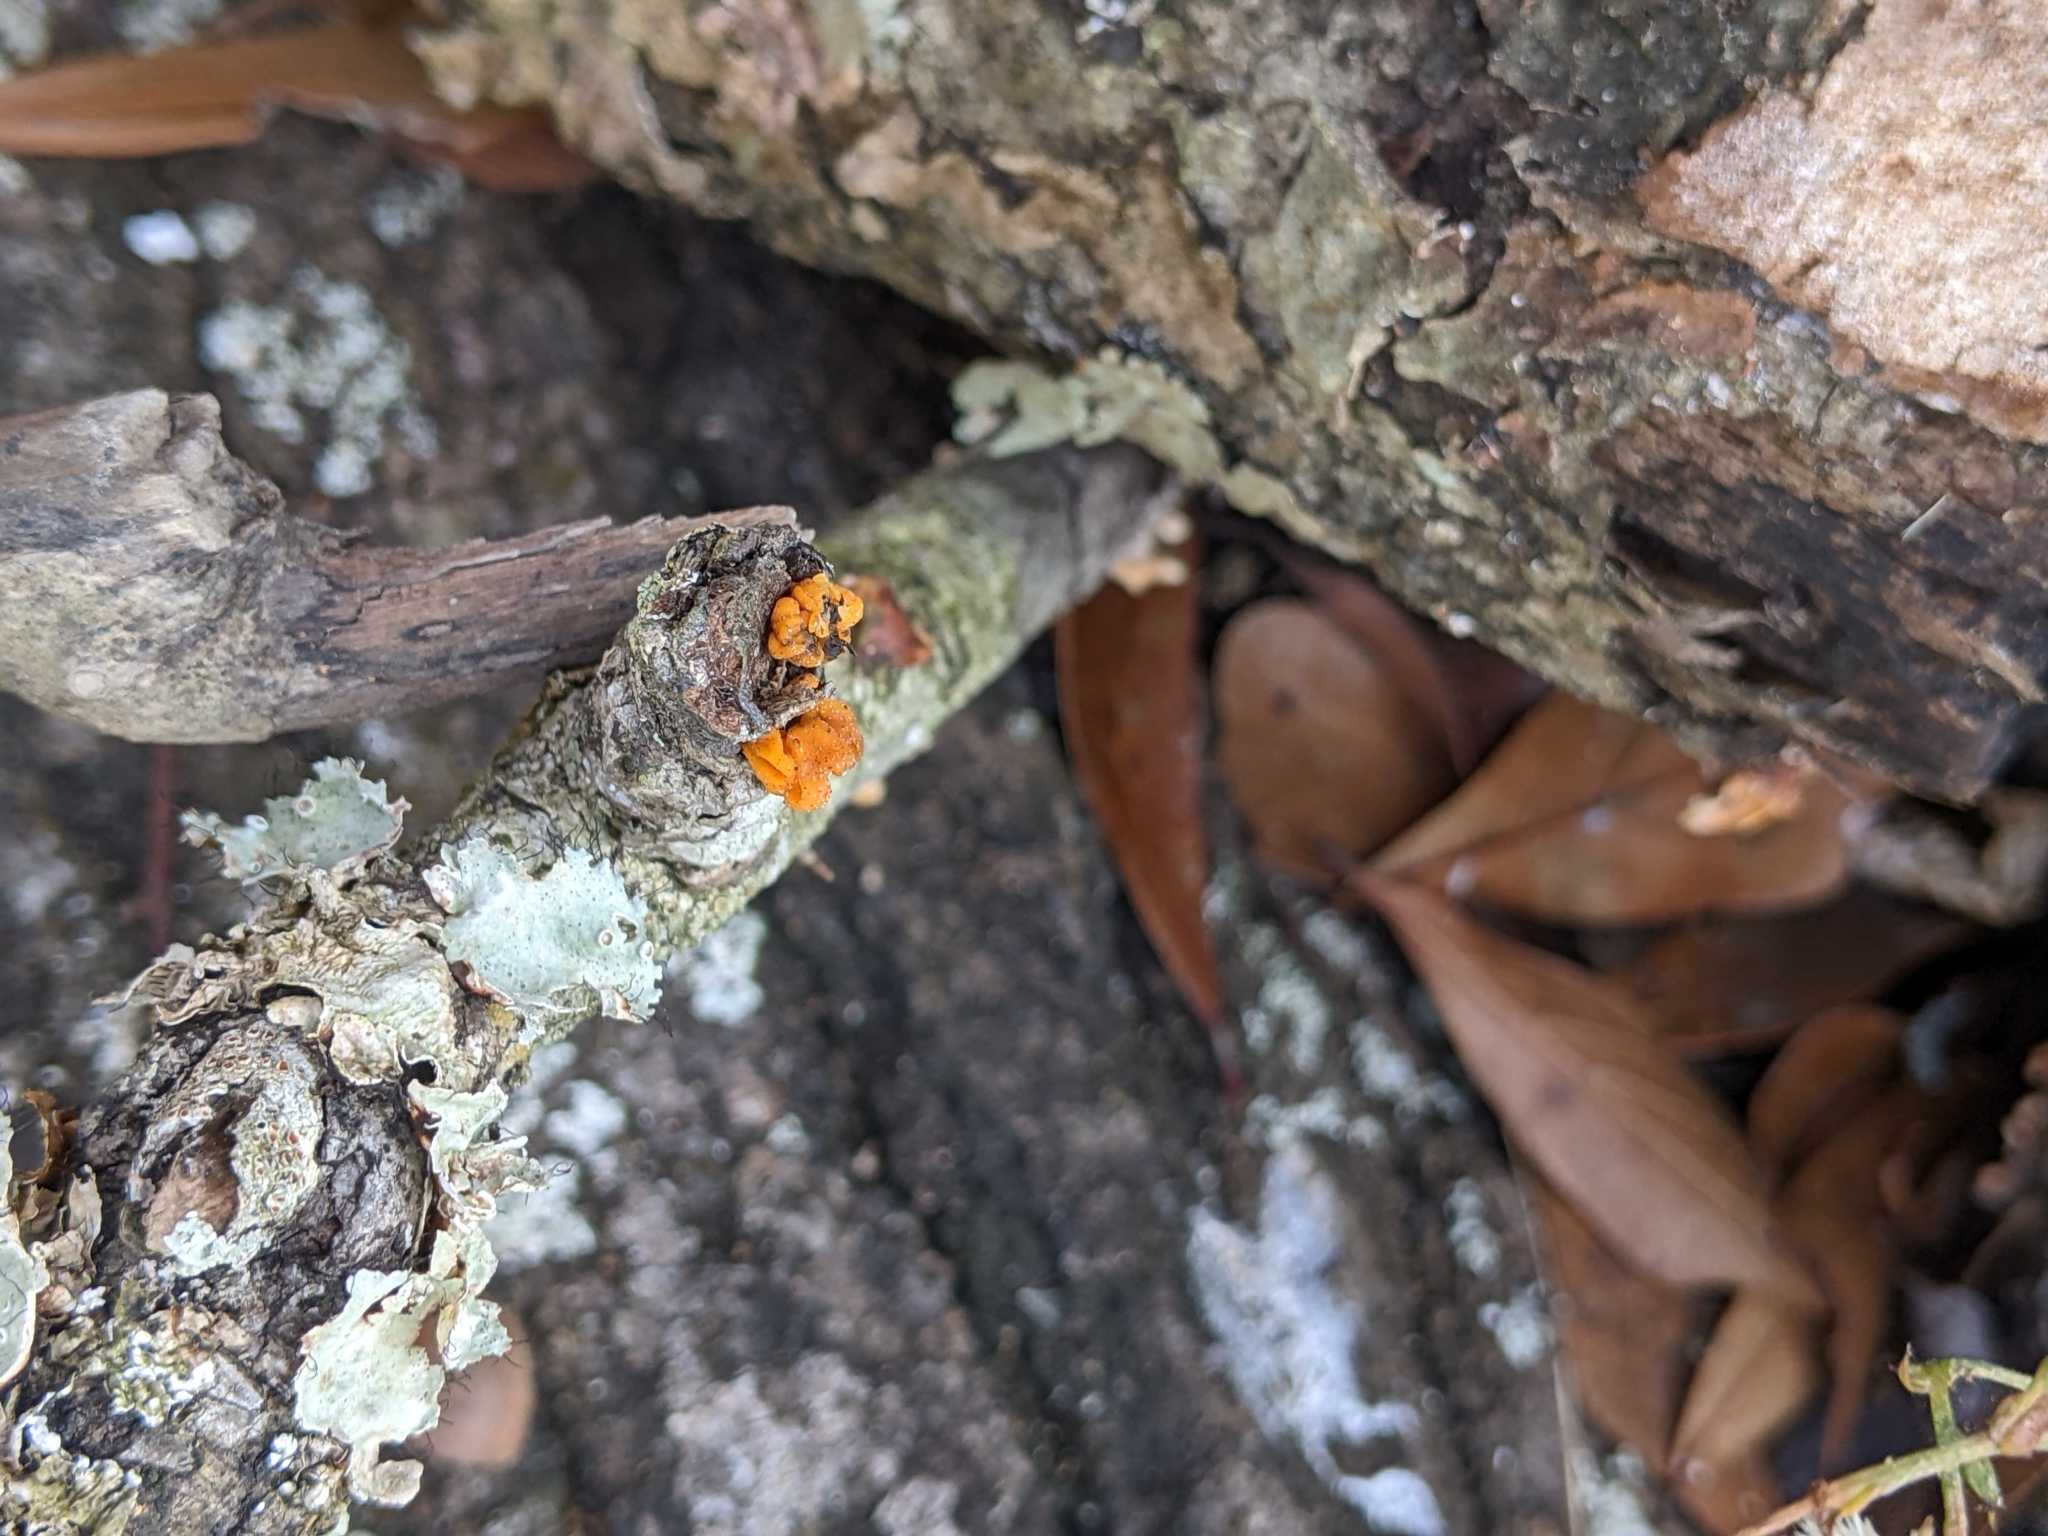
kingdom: Fungi
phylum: Basidiomycota
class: Tremellomycetes
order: Tremellales
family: Naemateliaceae
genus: Naematelia
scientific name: Naematelia aurantia
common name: Golden ear
